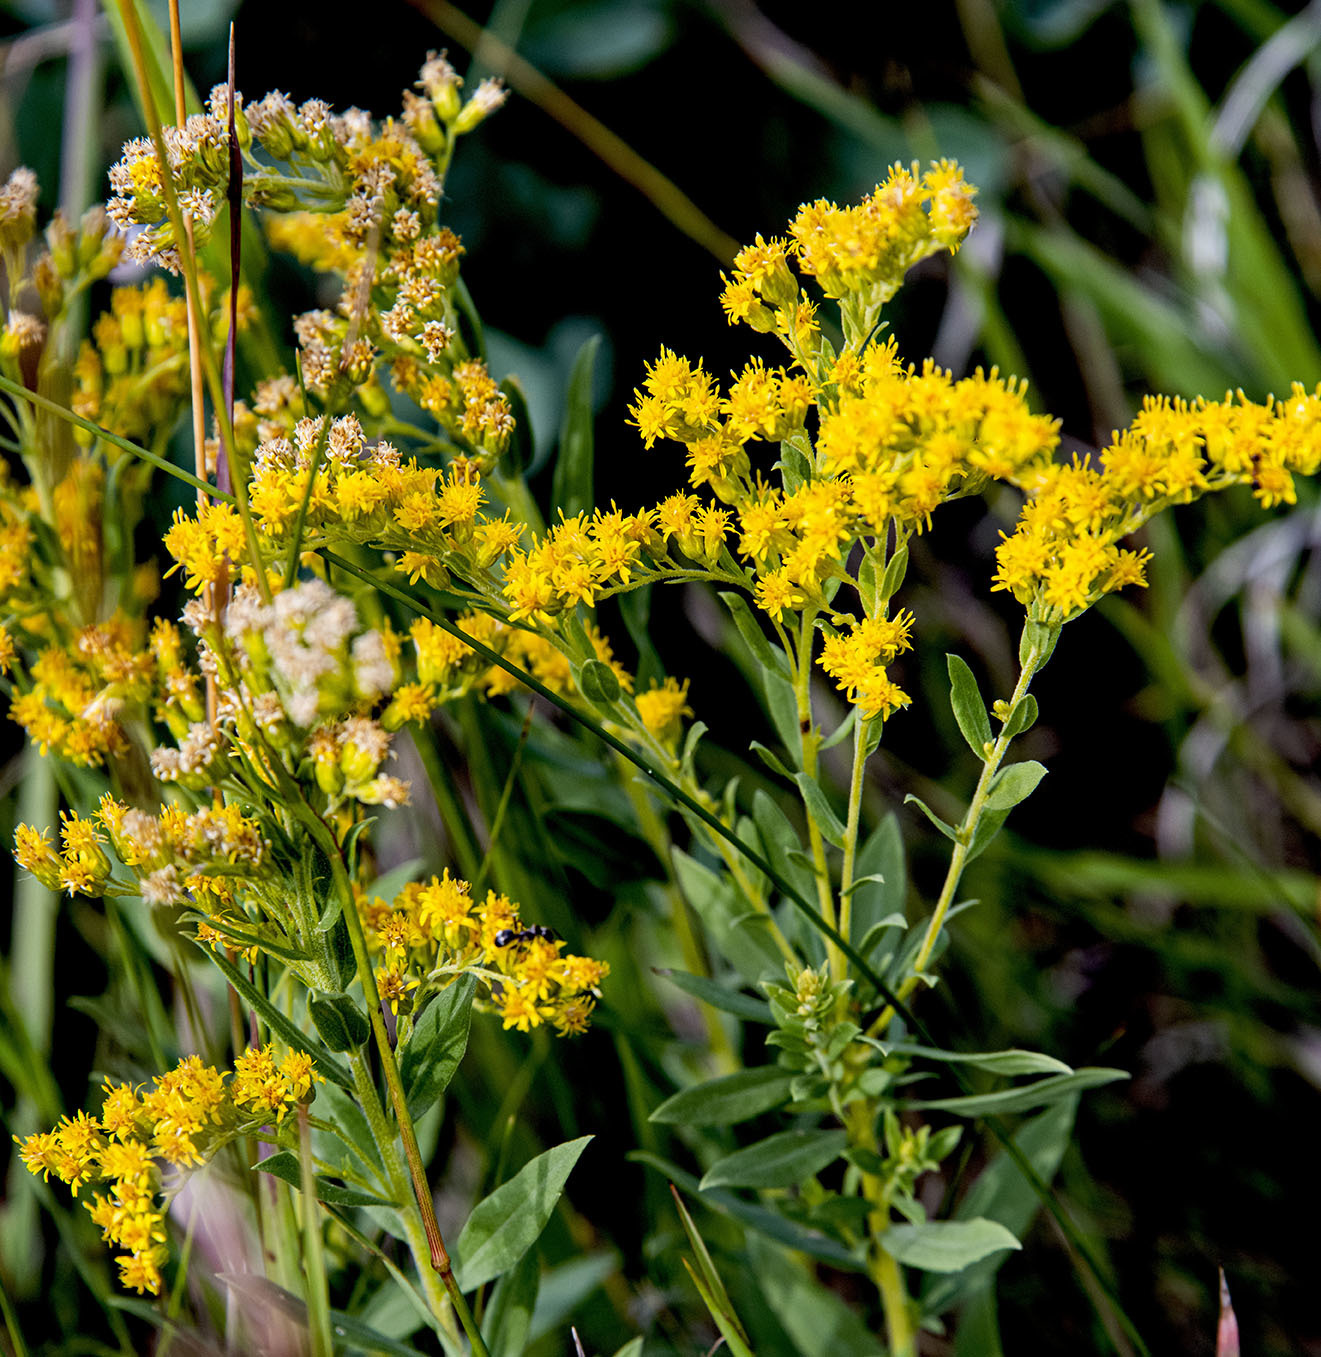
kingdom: Plantae
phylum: Tracheophyta
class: Magnoliopsida
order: Asterales
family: Asteraceae
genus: Solidago
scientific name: Solidago canadensis
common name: Canada goldenrod
